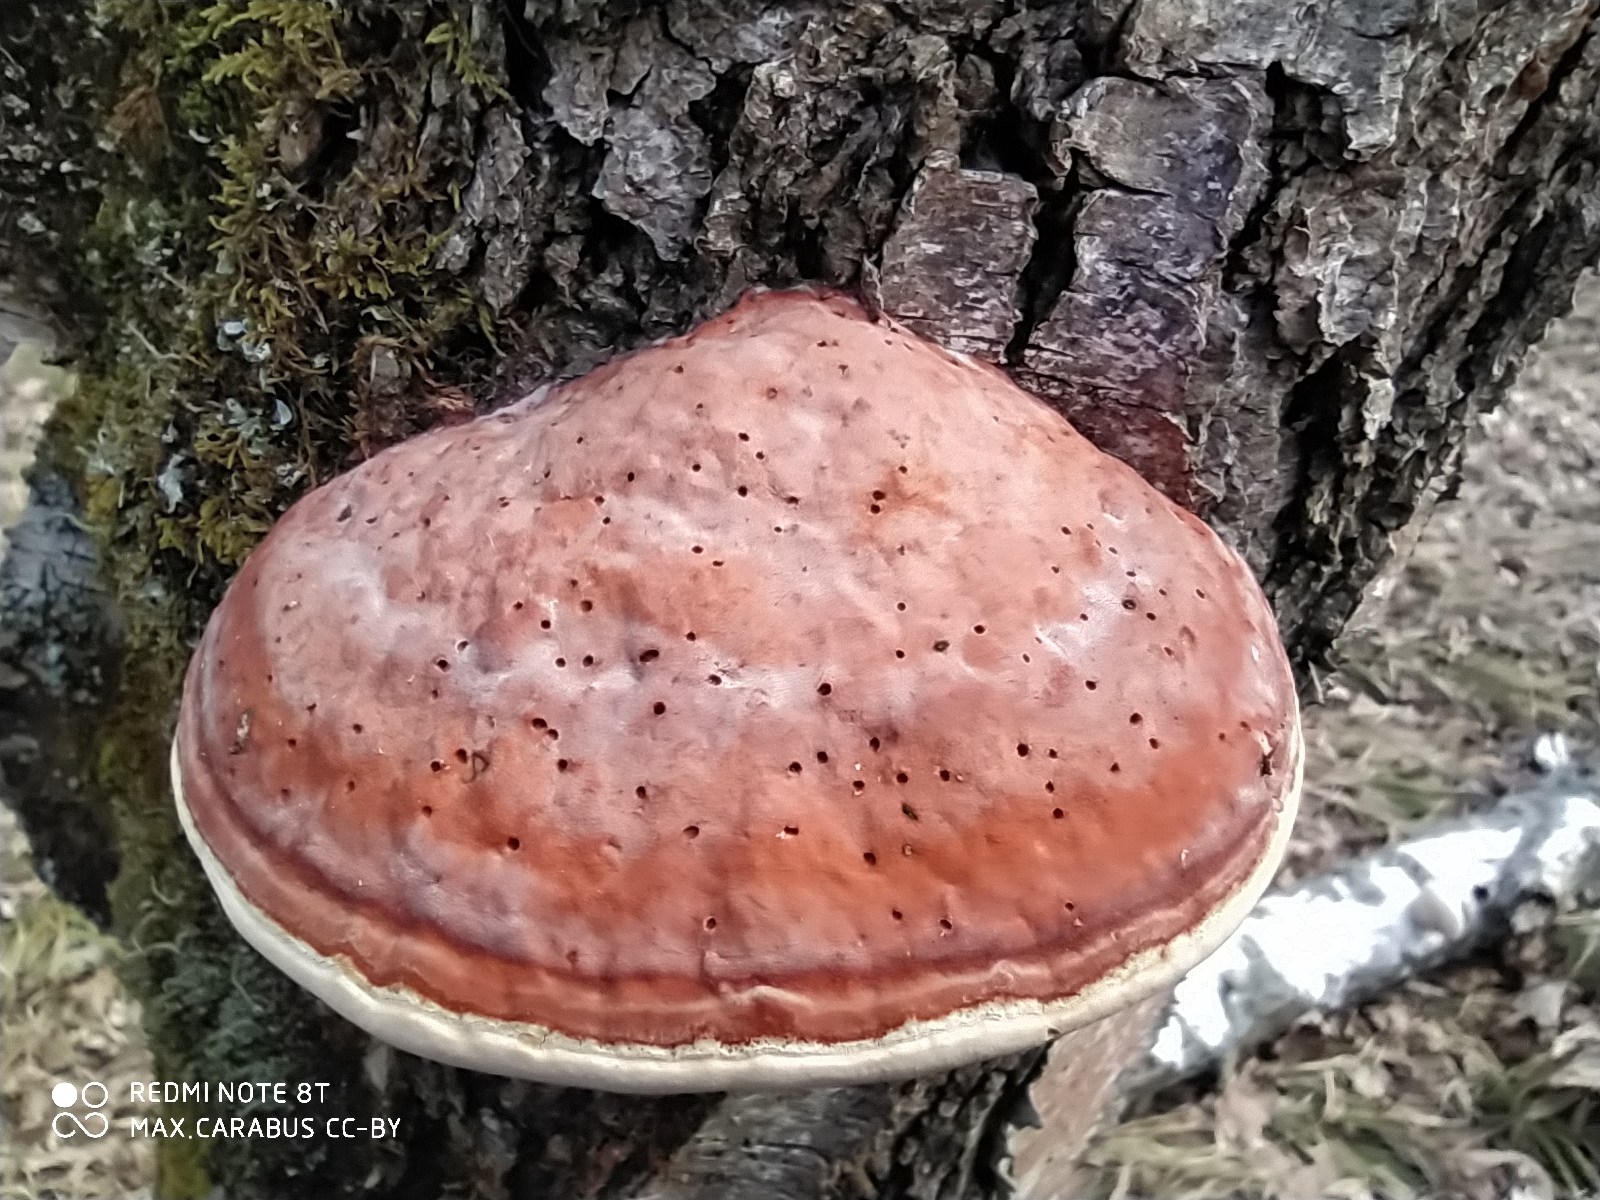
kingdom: Fungi
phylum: Basidiomycota
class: Agaricomycetes
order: Polyporales
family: Fomitopsidaceae
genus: Fomitopsis
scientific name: Fomitopsis pinicola
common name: Red-belted bracket
